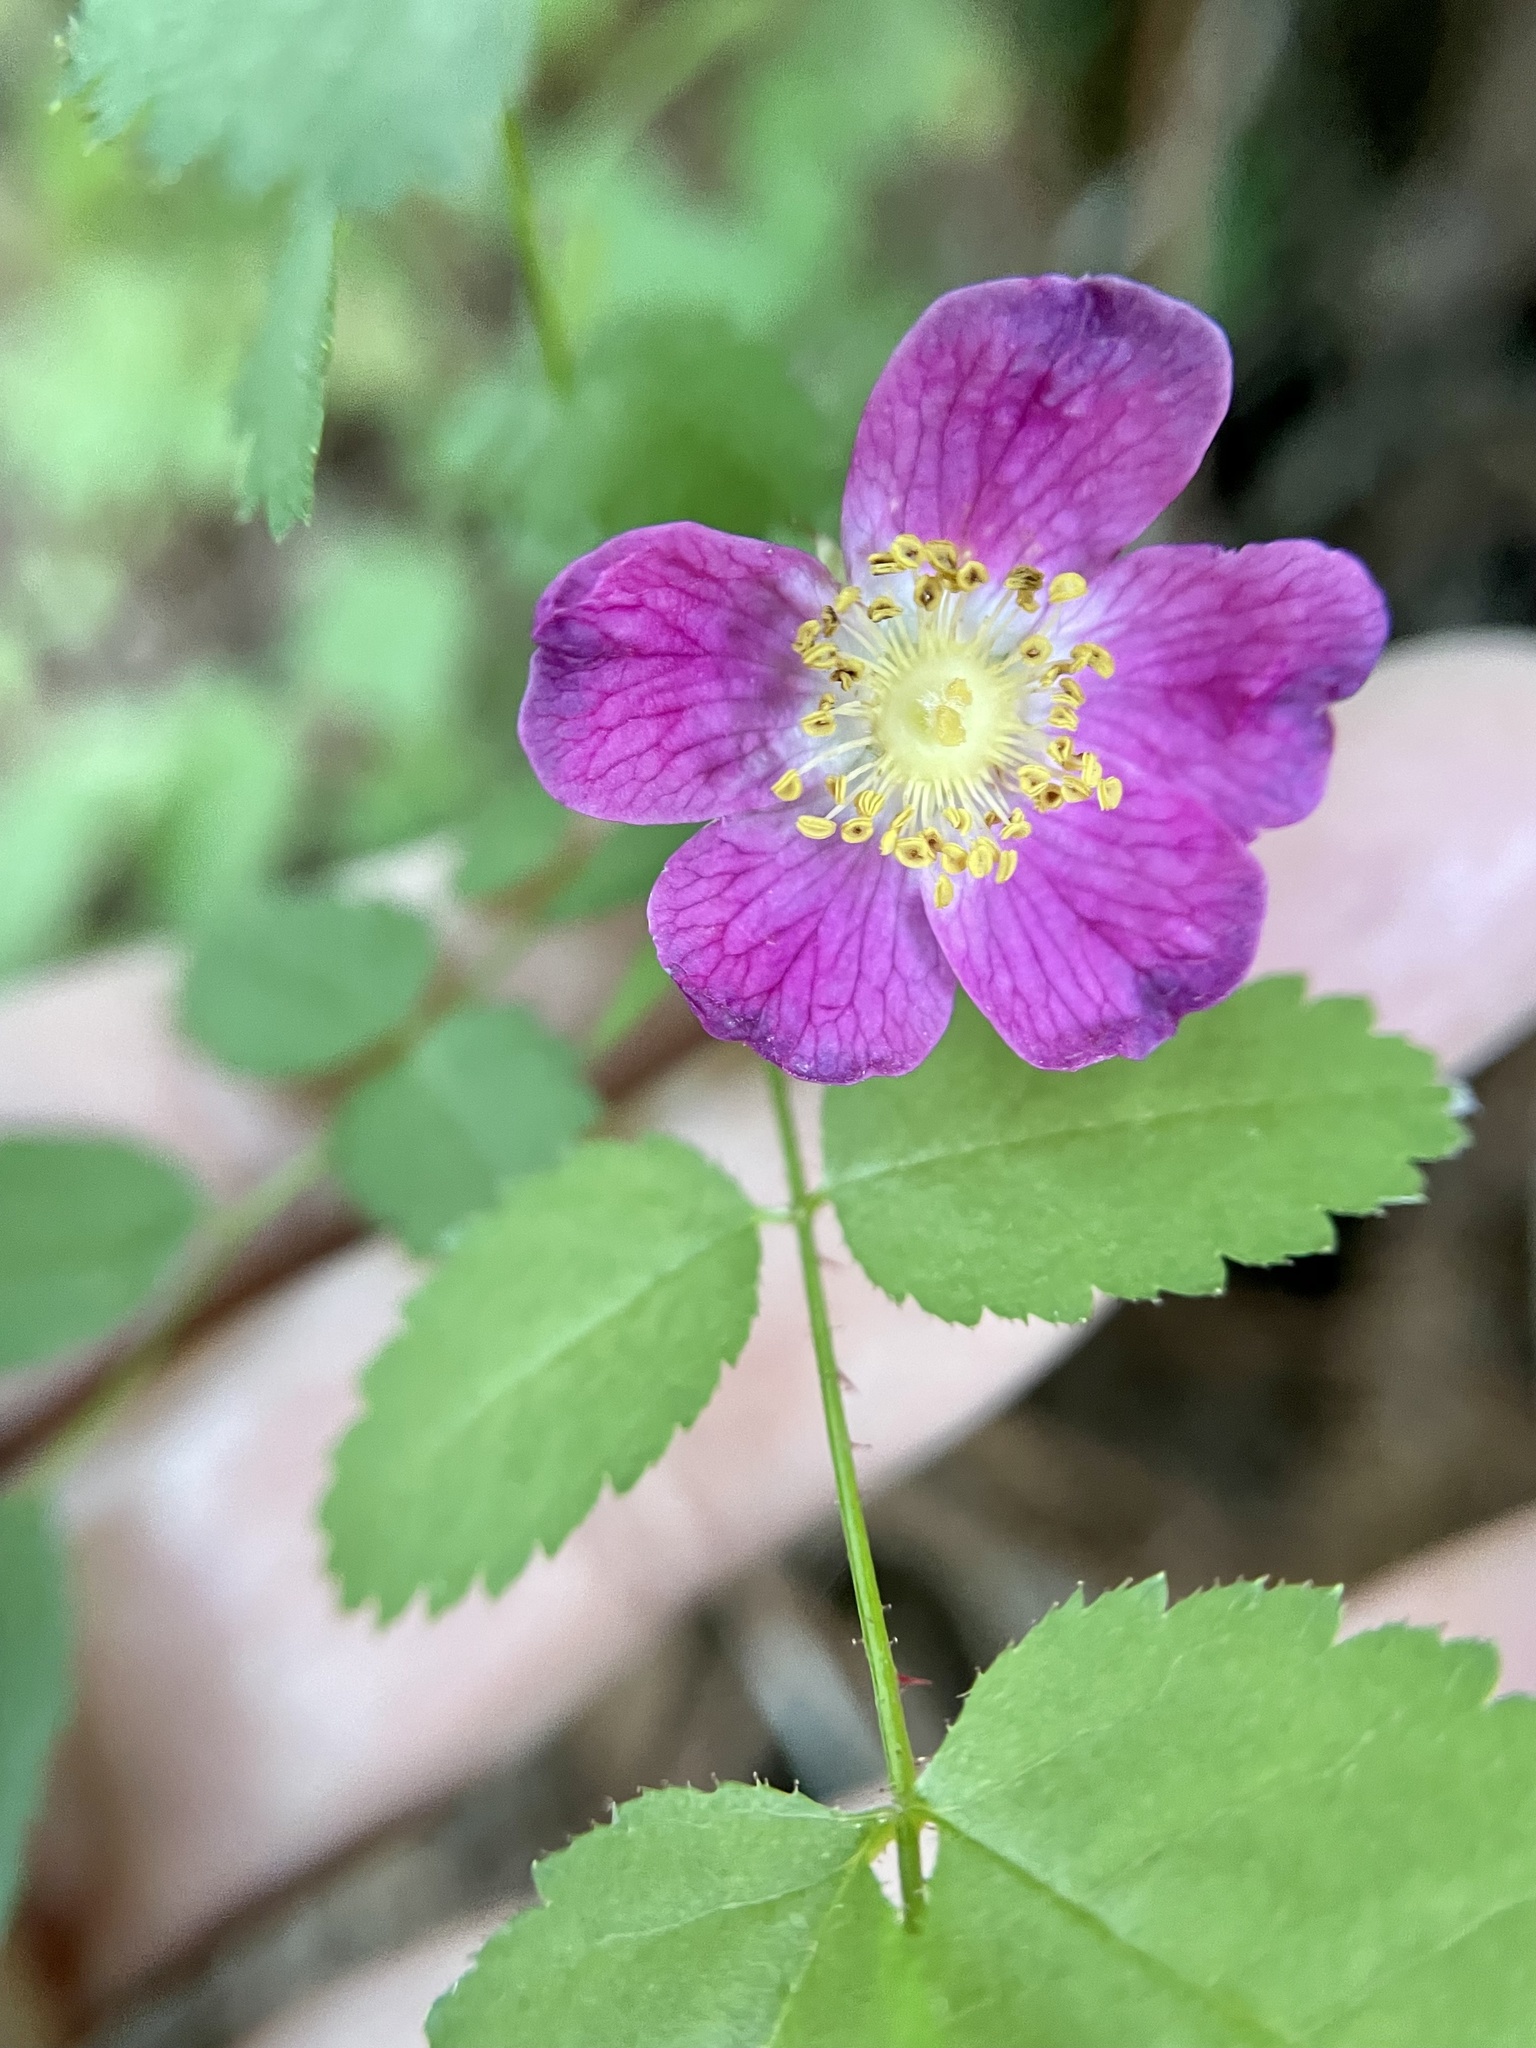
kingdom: Plantae
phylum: Tracheophyta
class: Magnoliopsida
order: Rosales
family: Rosaceae
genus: Rosa
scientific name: Rosa gymnocarpa
